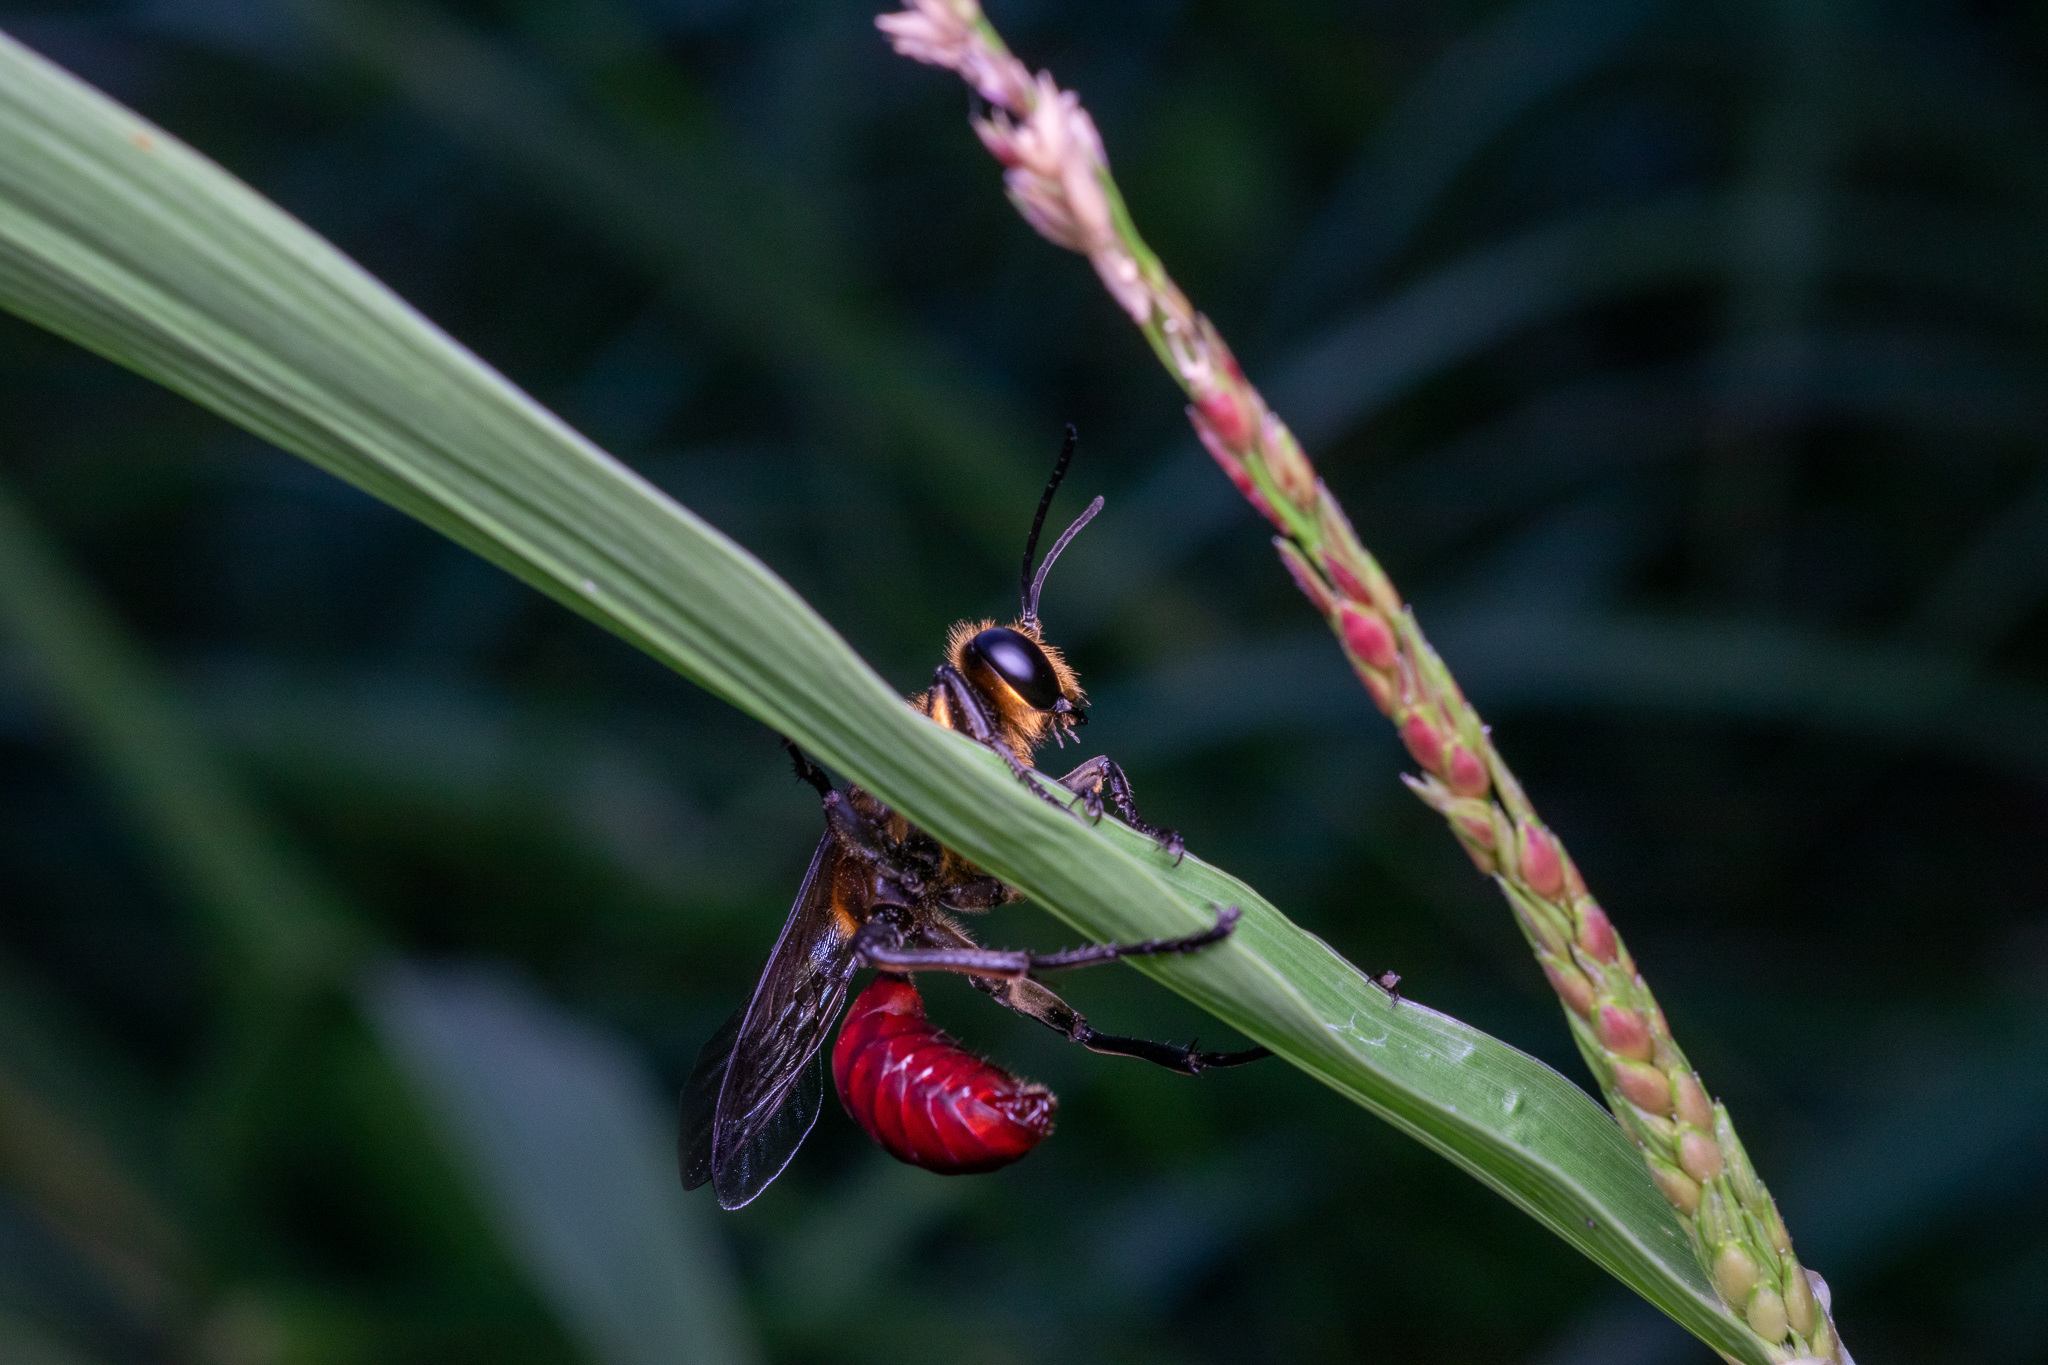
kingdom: Animalia
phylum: Arthropoda
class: Insecta
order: Hymenoptera
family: Sphecidae
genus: Sphex
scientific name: Sphex habenus
